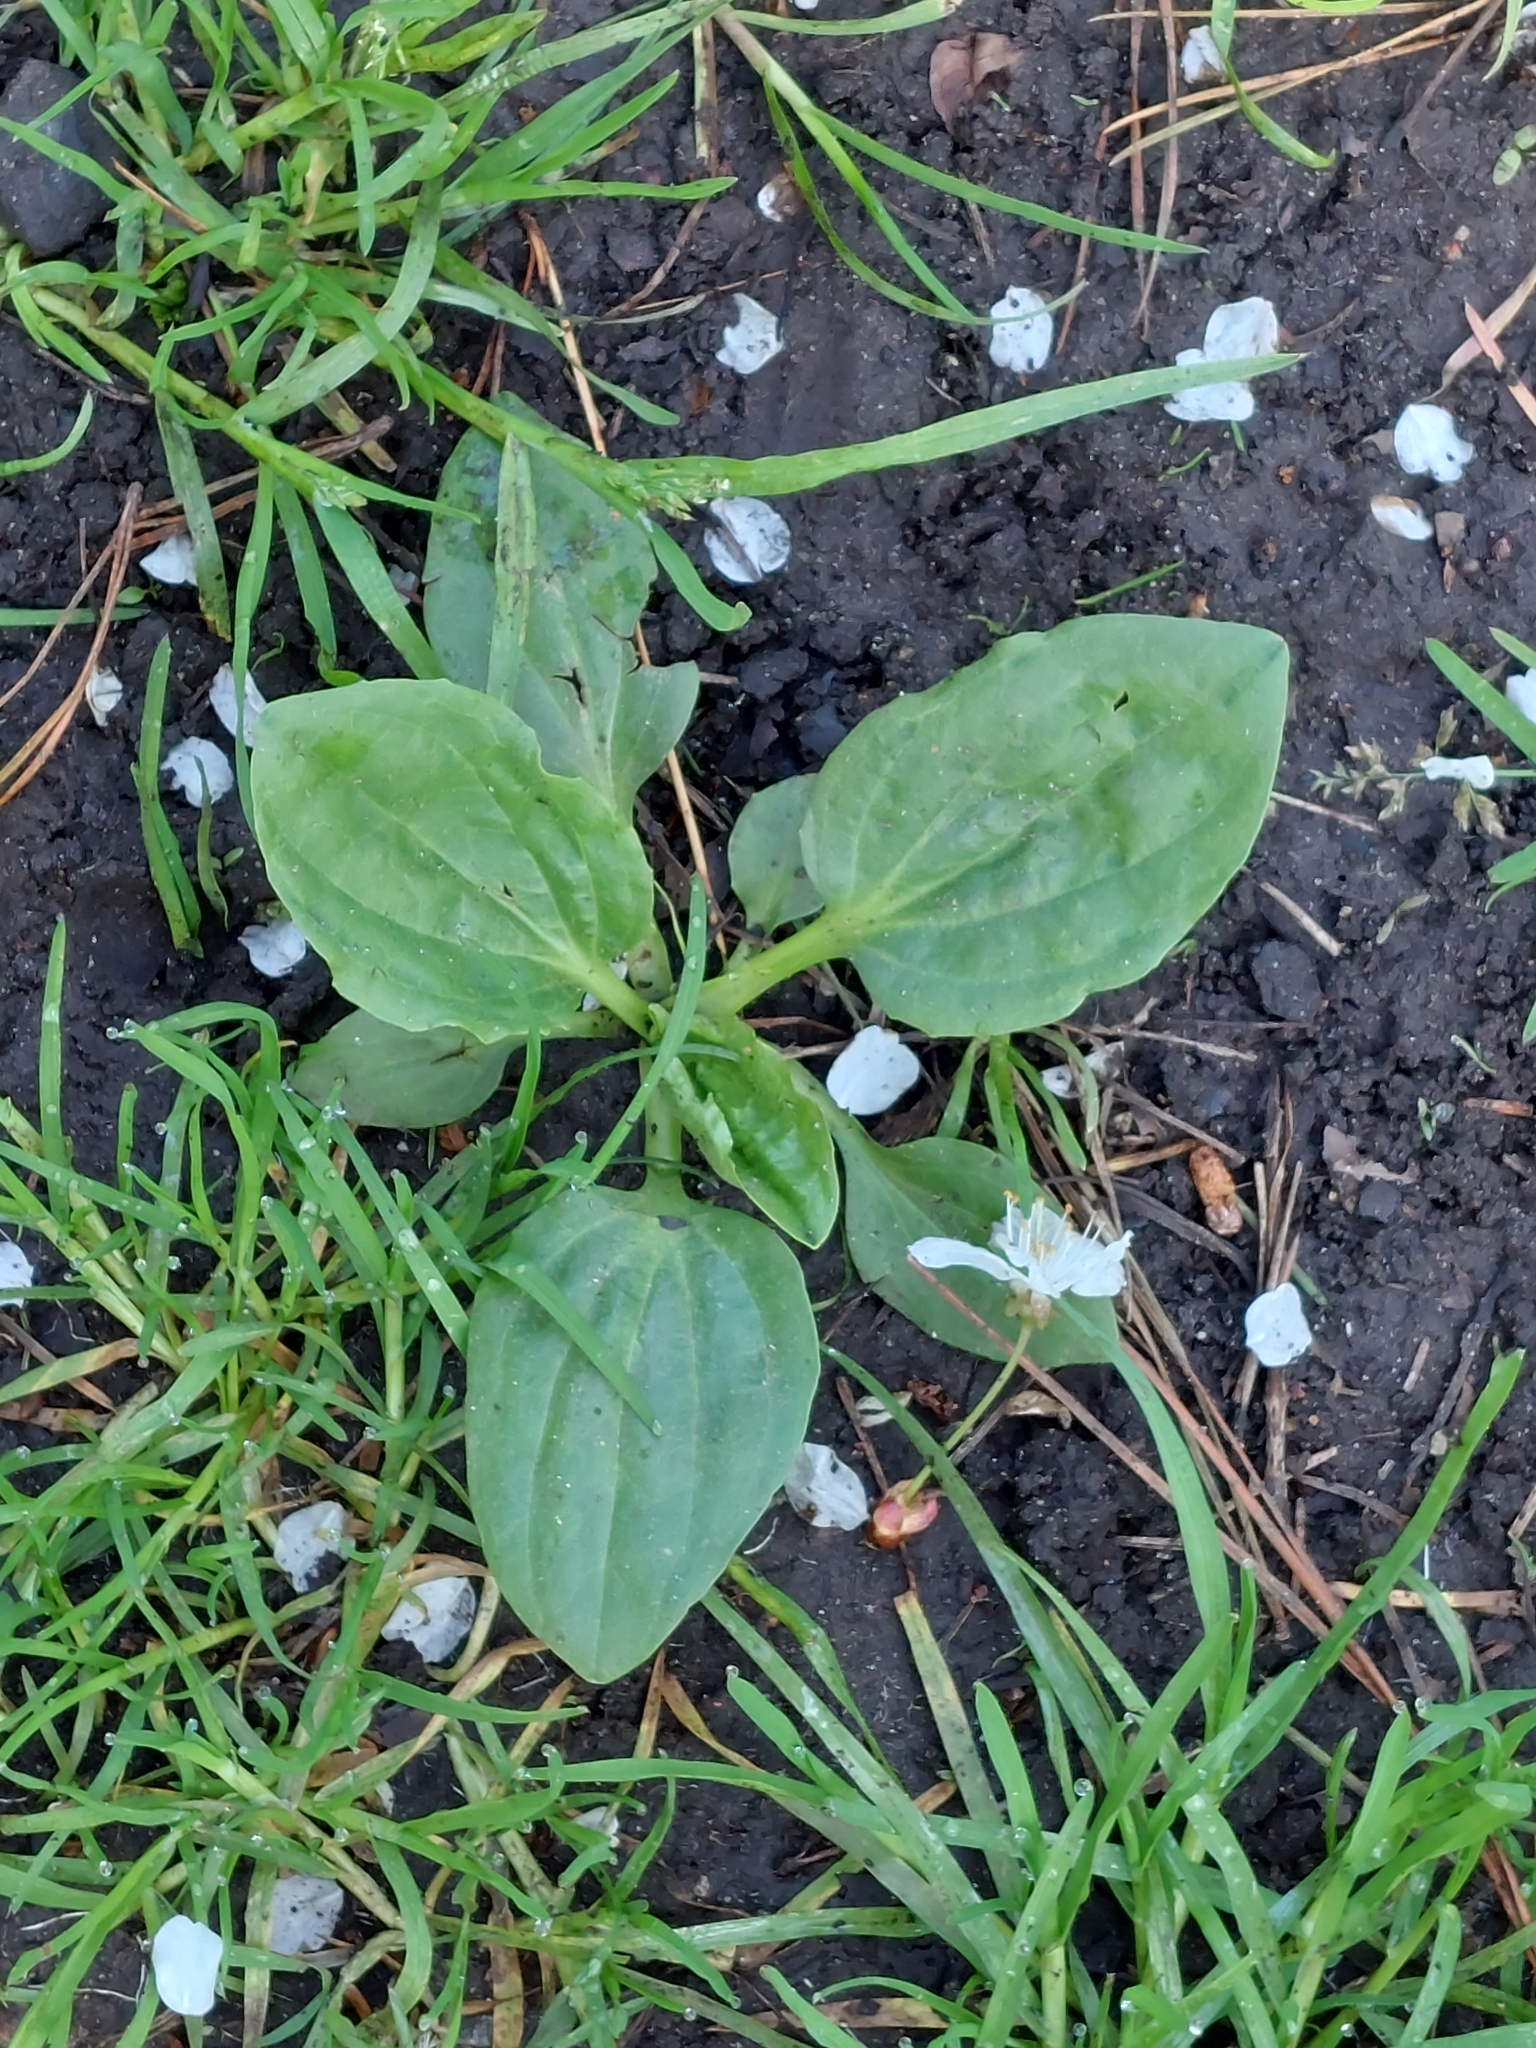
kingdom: Plantae
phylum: Tracheophyta
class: Magnoliopsida
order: Lamiales
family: Plantaginaceae
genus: Plantago
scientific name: Plantago major
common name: Common plantain
